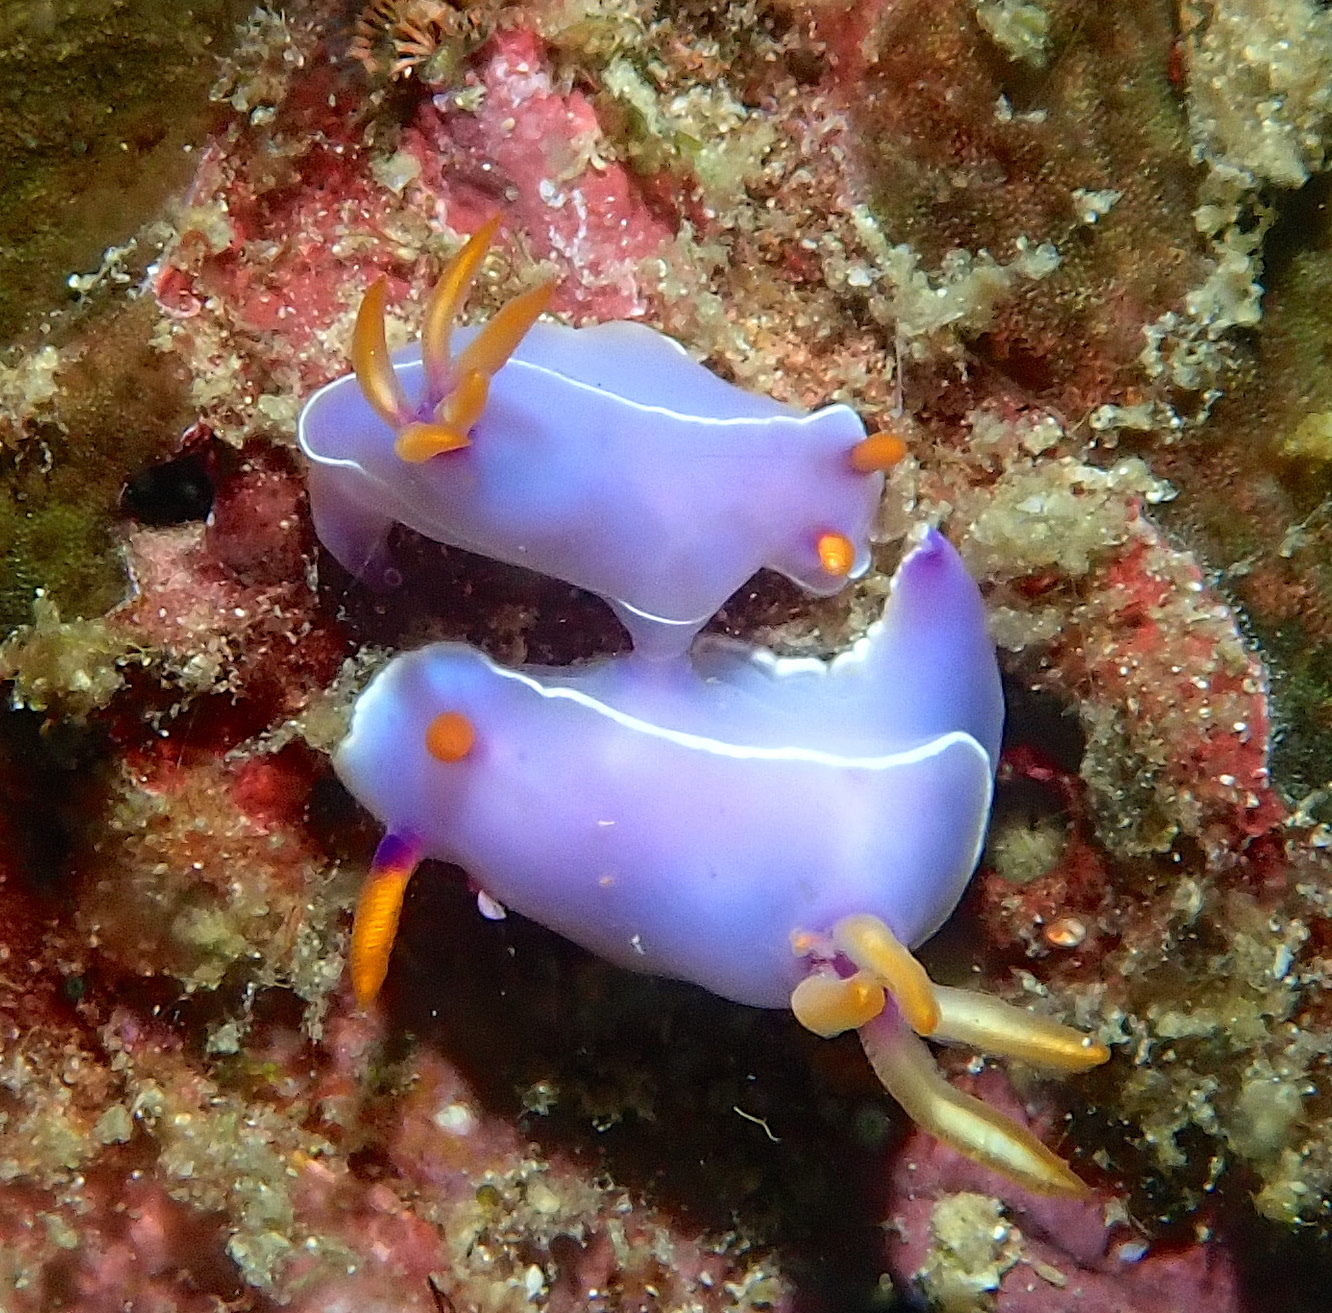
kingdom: Animalia
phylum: Mollusca
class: Gastropoda
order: Nudibranchia
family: Chromodorididae
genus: Hypselodoris
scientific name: Hypselodoris bullockii
